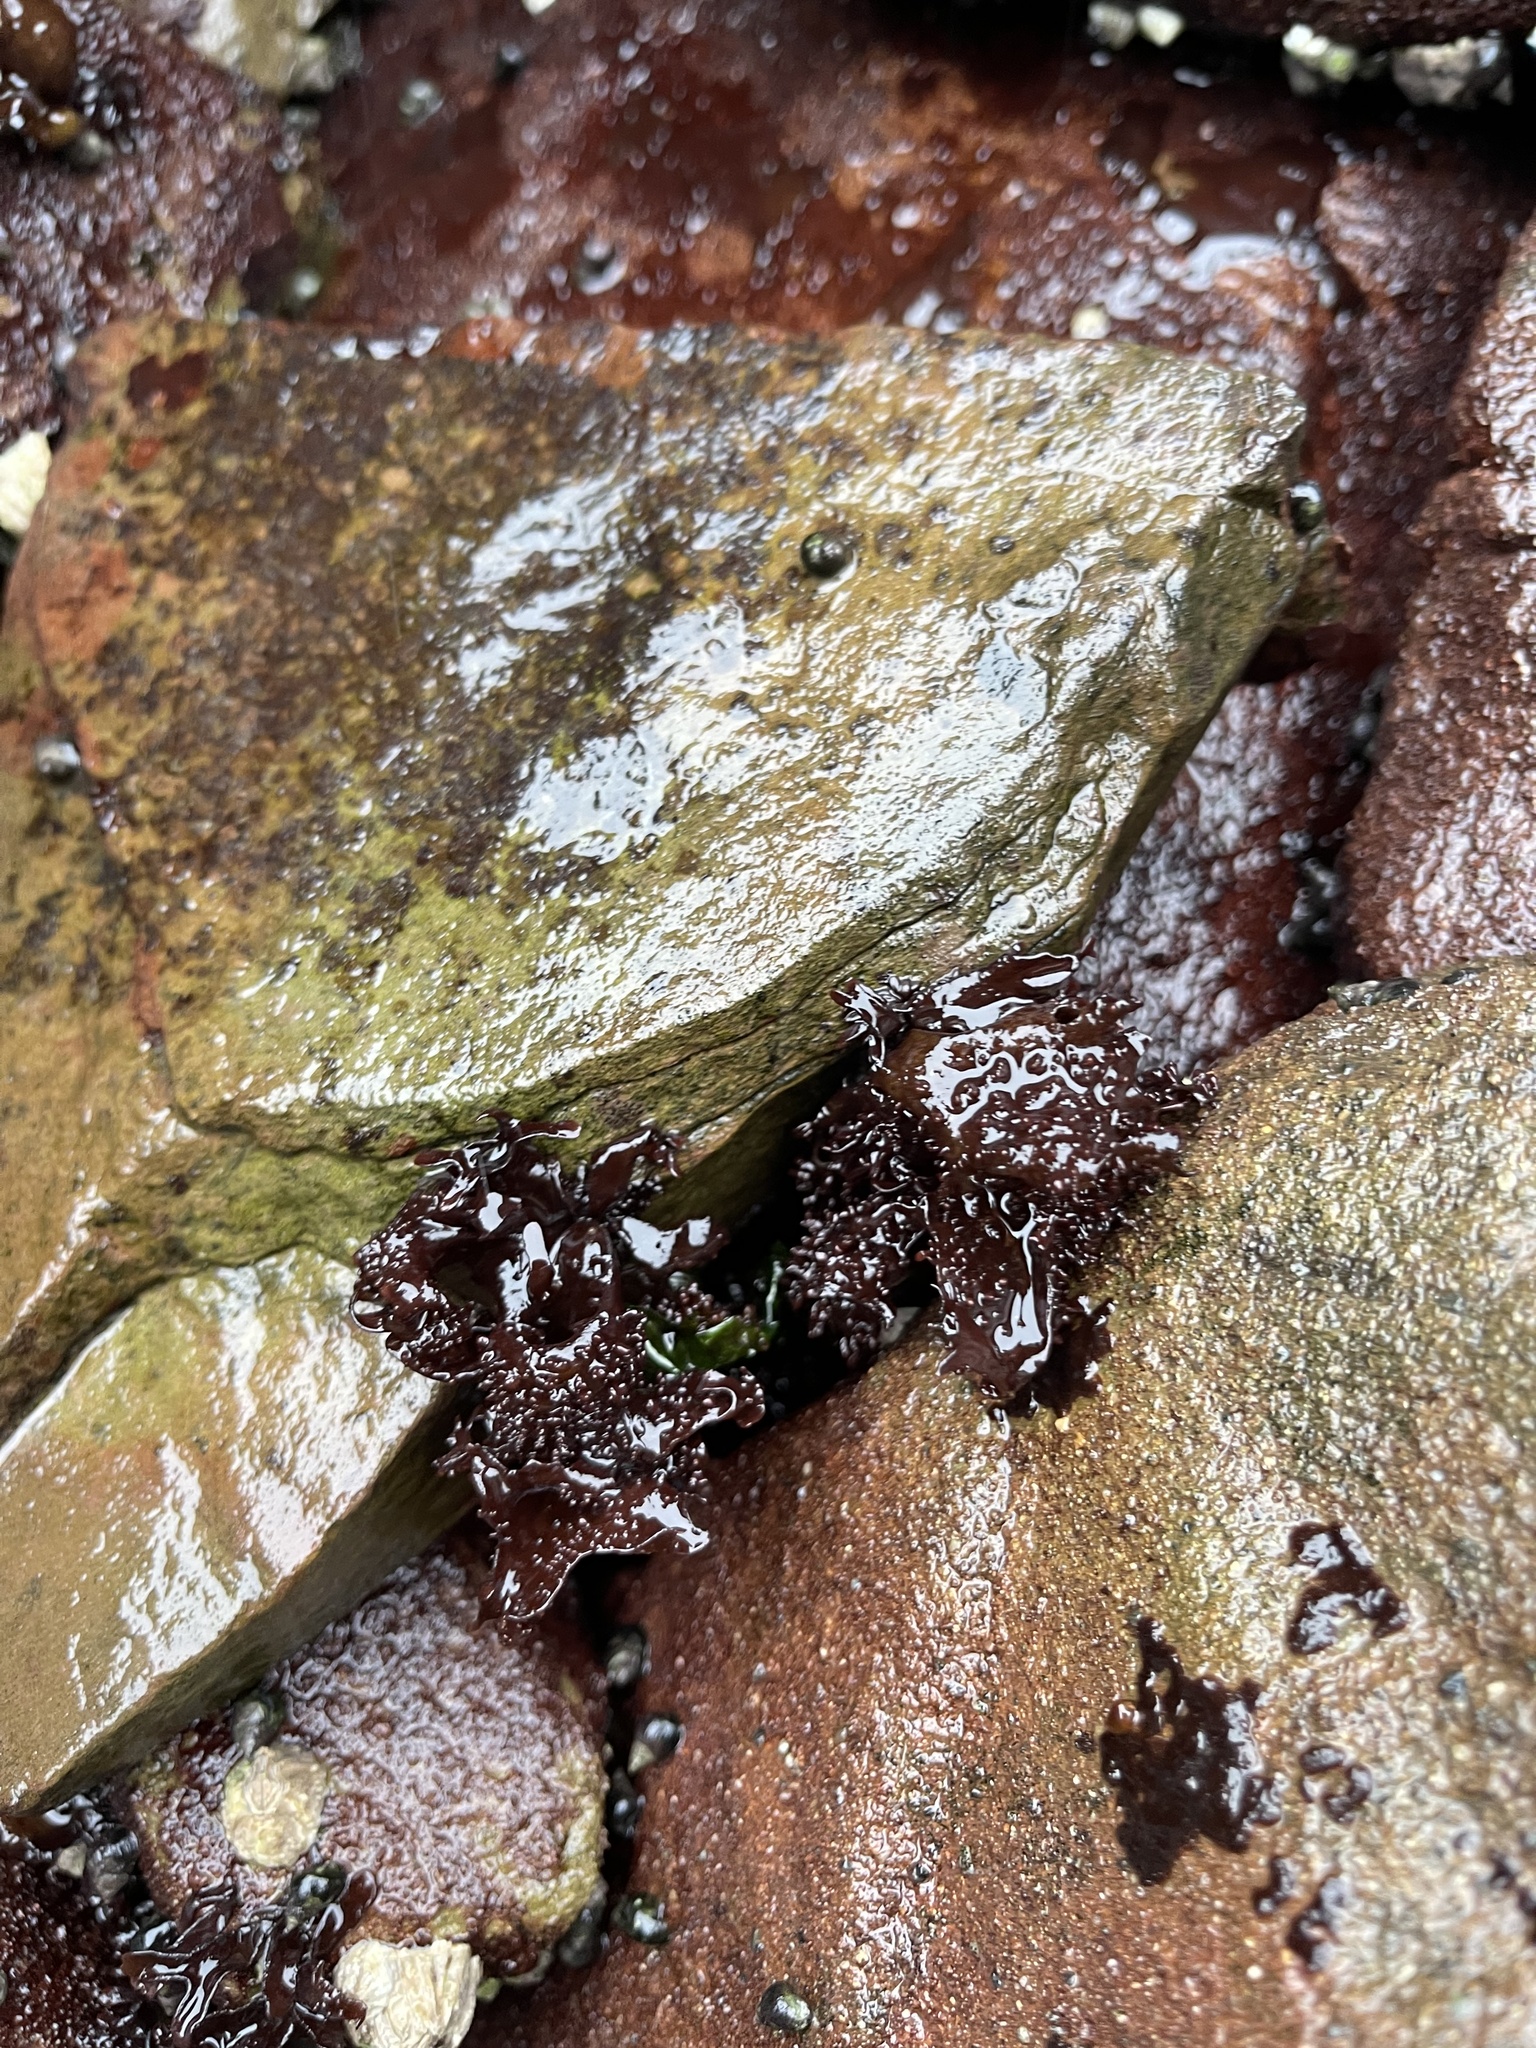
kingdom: Plantae
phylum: Rhodophyta
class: Florideophyceae
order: Gigartinales
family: Phyllophoraceae
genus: Mastocarpus
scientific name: Mastocarpus papillatus
